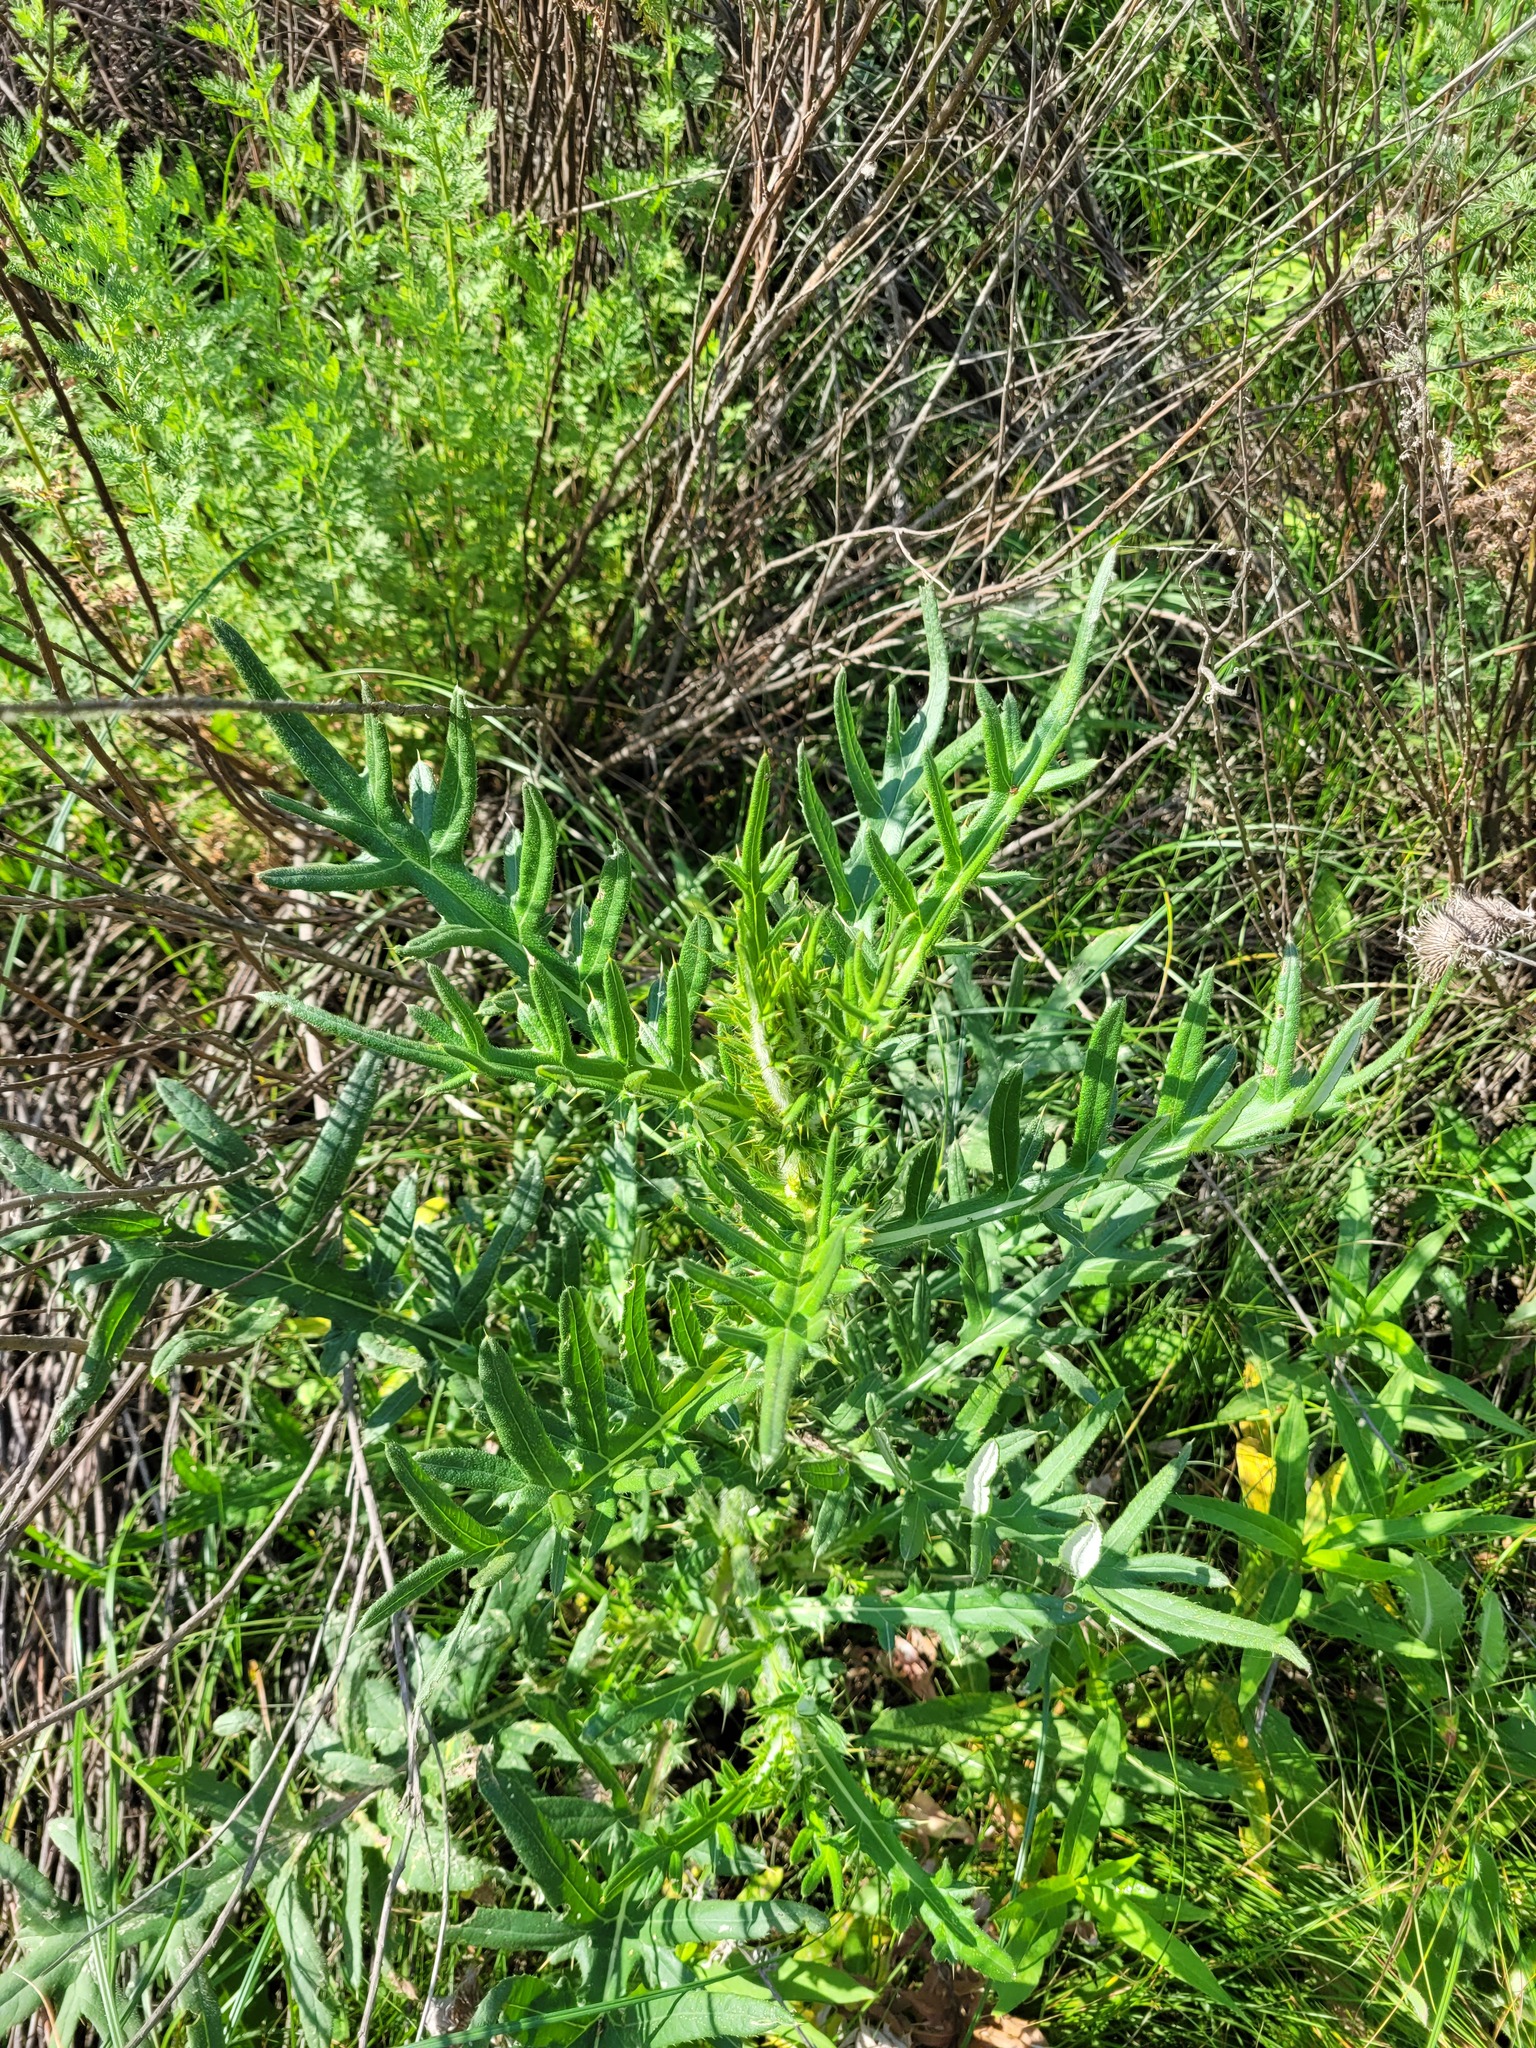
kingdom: Plantae
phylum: Tracheophyta
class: Magnoliopsida
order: Asterales
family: Asteraceae
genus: Cirsium
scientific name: Cirsium serrulatum
